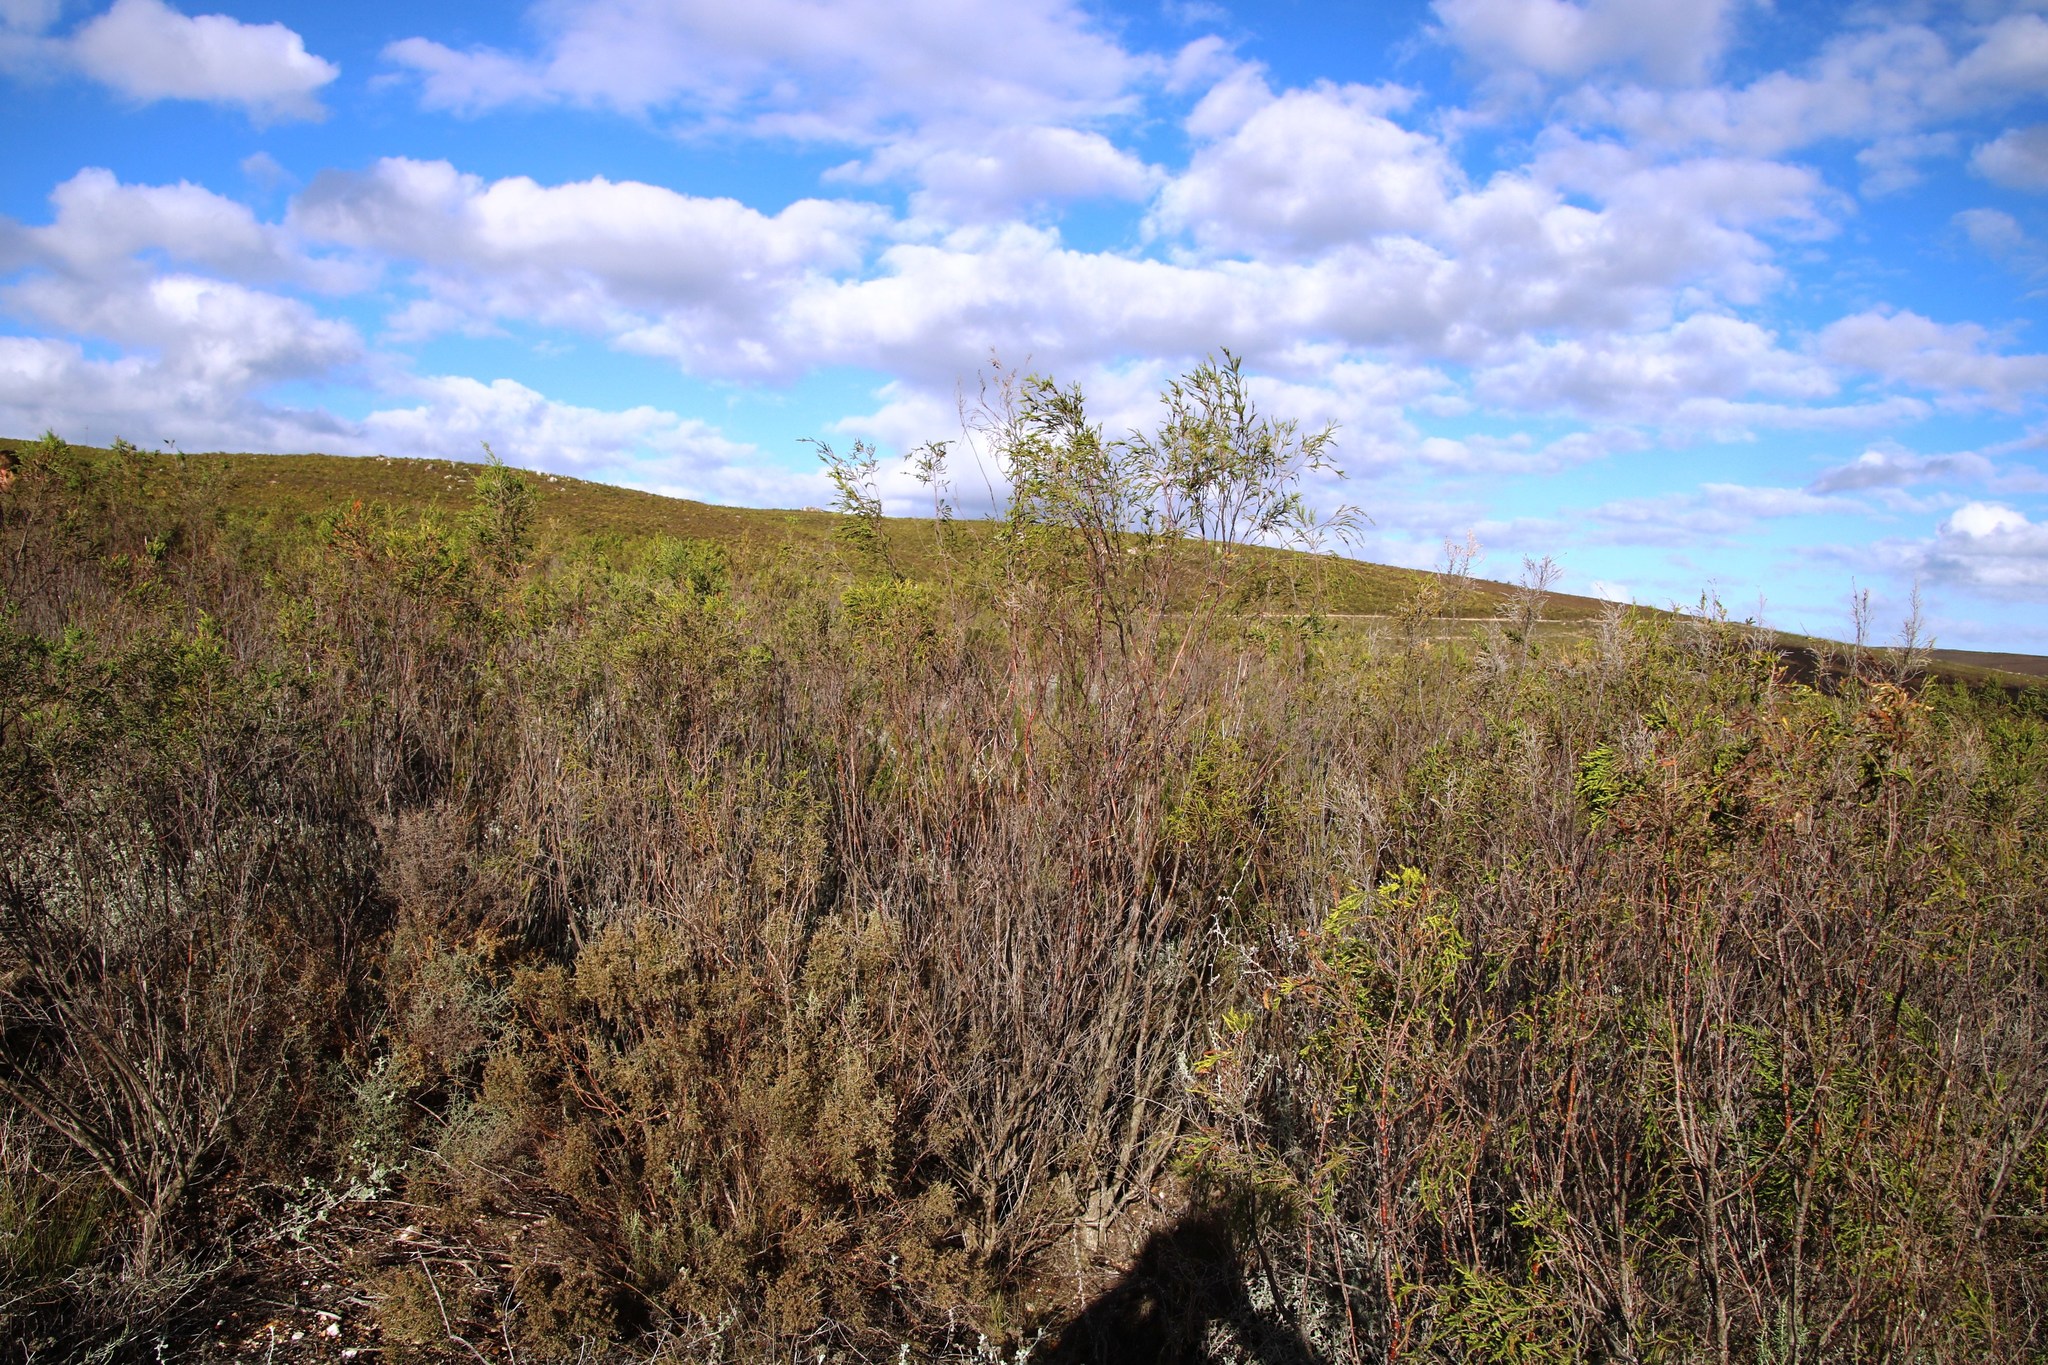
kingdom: Plantae
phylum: Tracheophyta
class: Magnoliopsida
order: Malvales
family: Thymelaeaceae
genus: Passerina
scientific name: Passerina corymbosa
